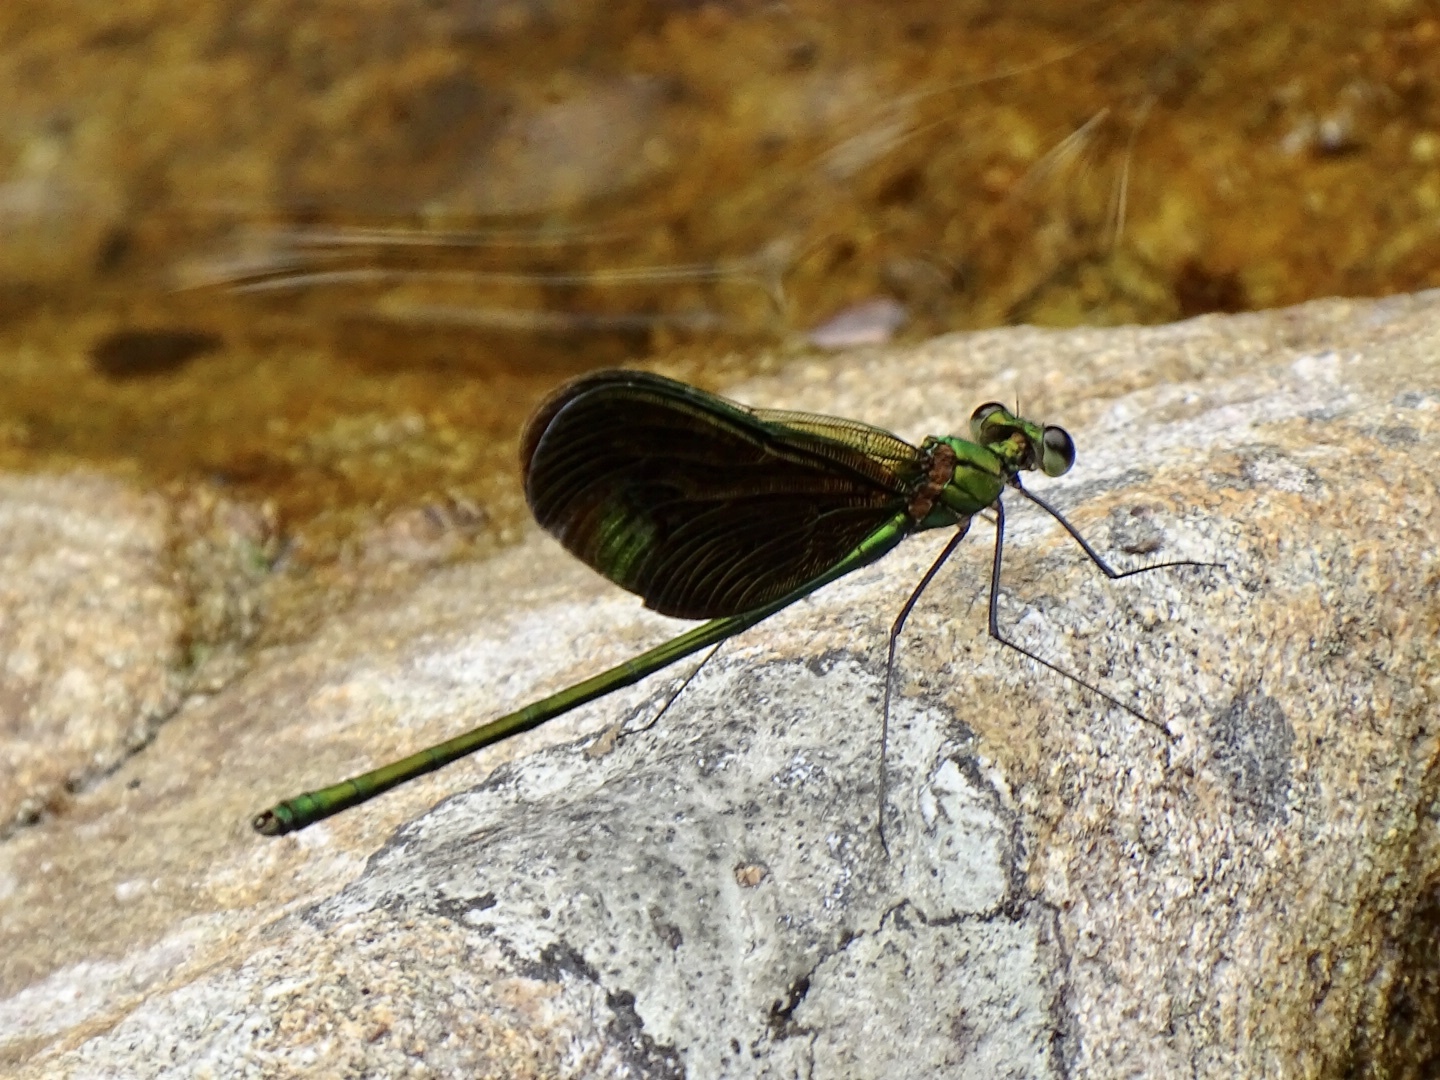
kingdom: Animalia
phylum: Arthropoda
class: Insecta
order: Odonata
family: Calopterygidae
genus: Neurobasis
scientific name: Neurobasis chinensis
